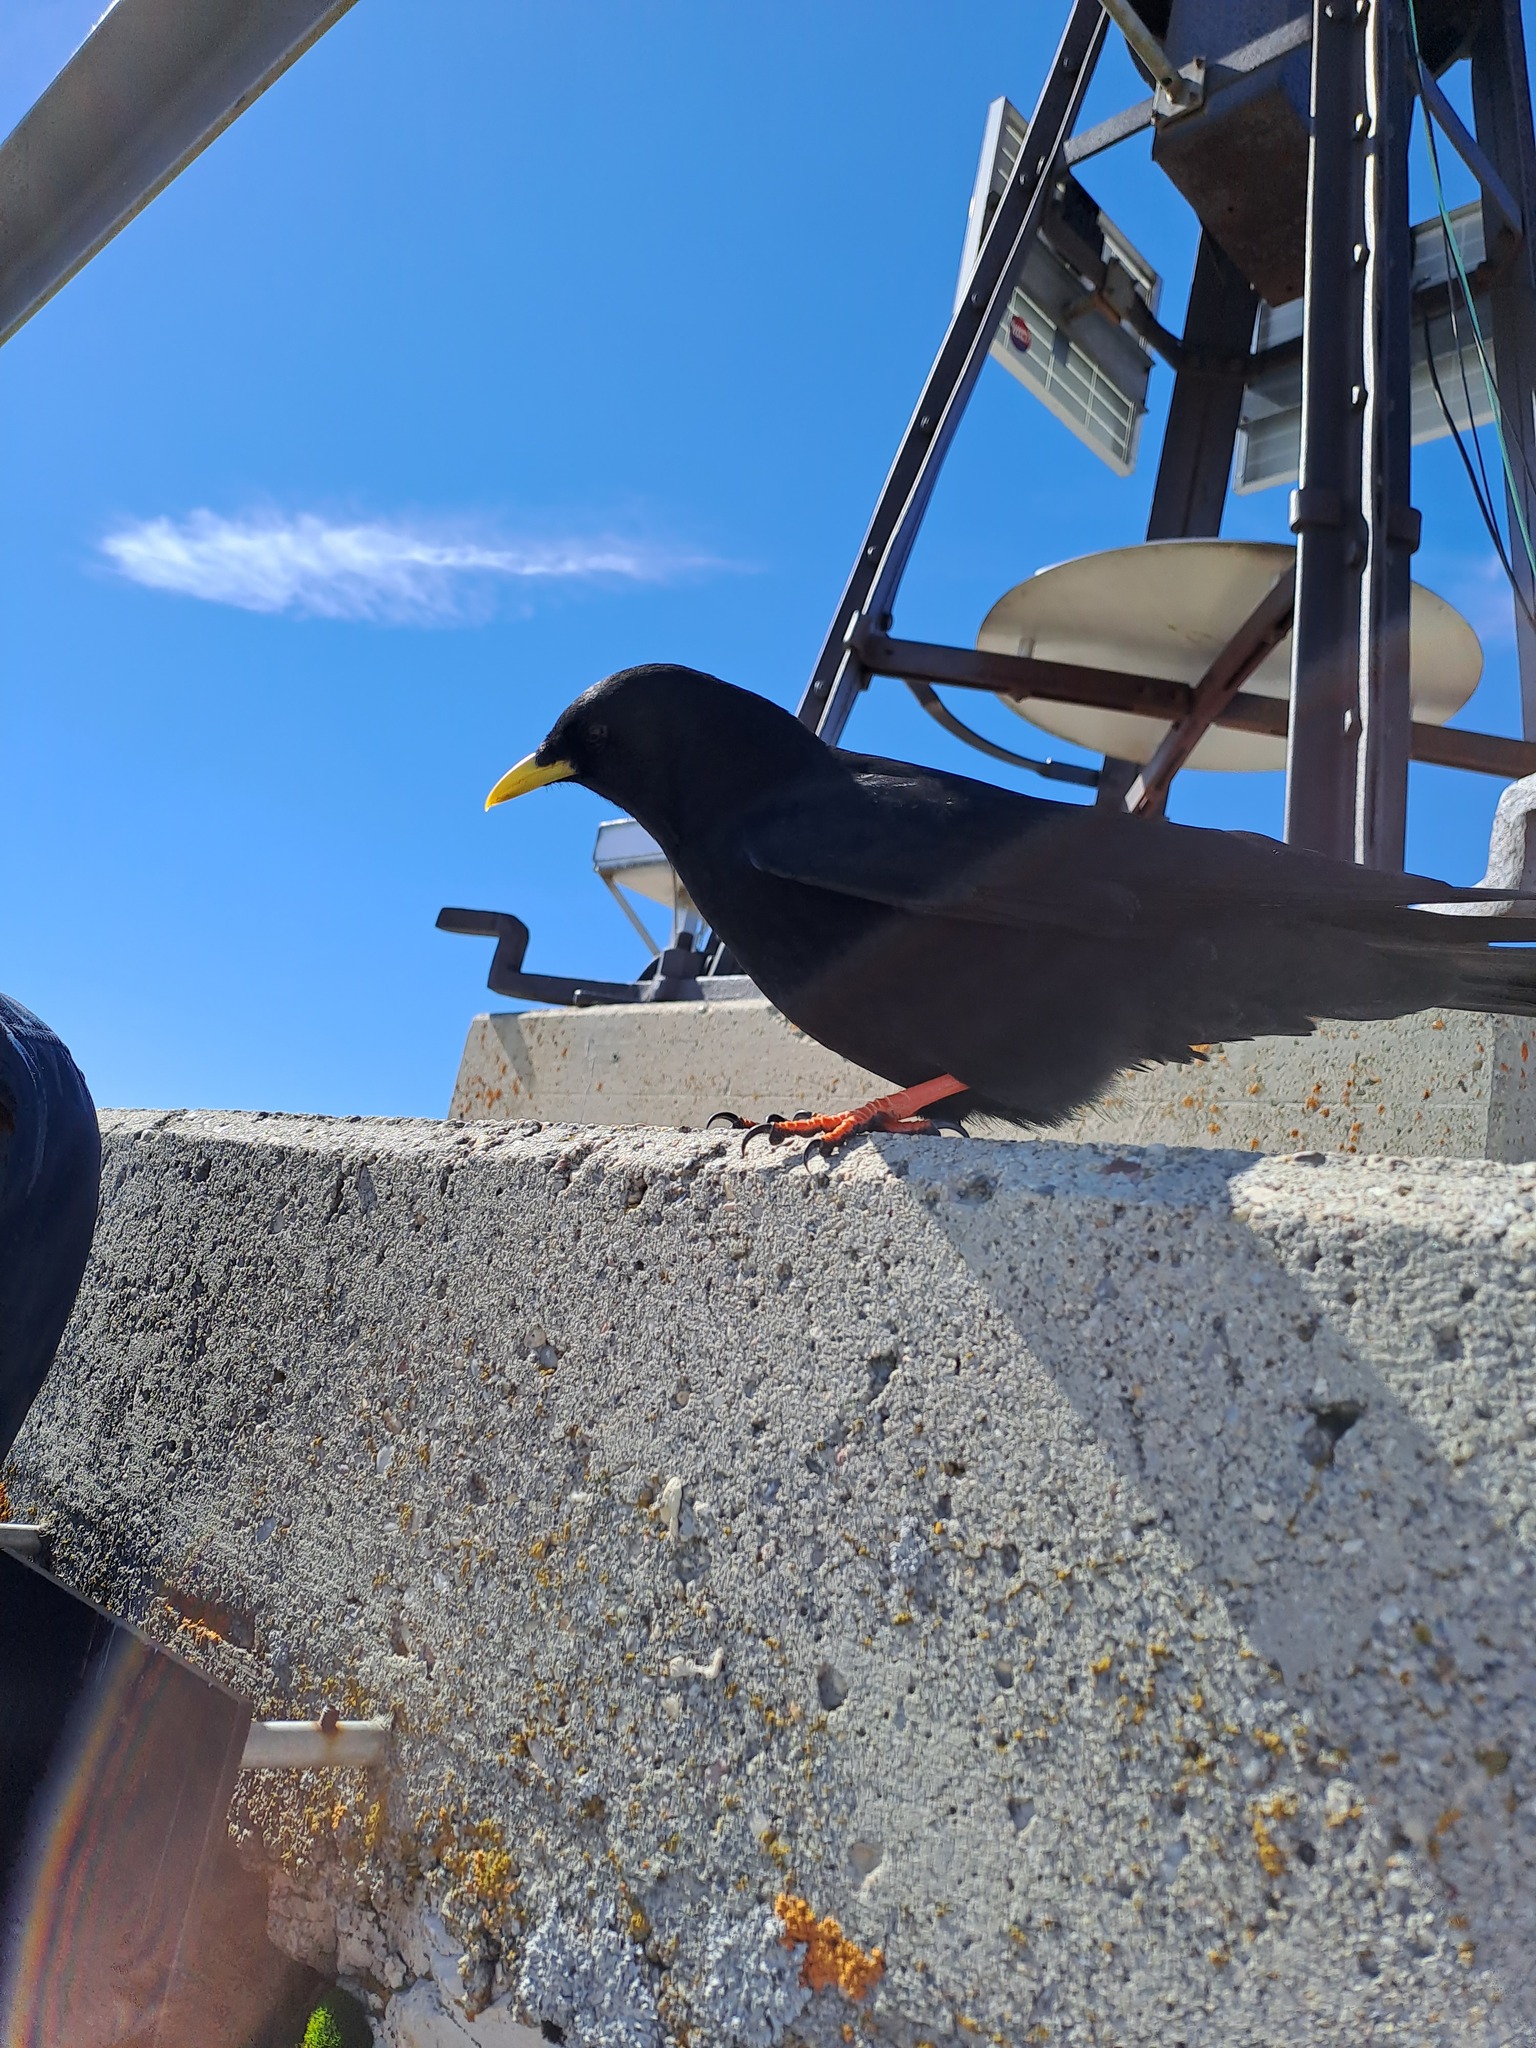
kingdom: Animalia
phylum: Chordata
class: Aves
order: Passeriformes
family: Corvidae
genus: Pyrrhocorax
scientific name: Pyrrhocorax graculus
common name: Alpine chough
